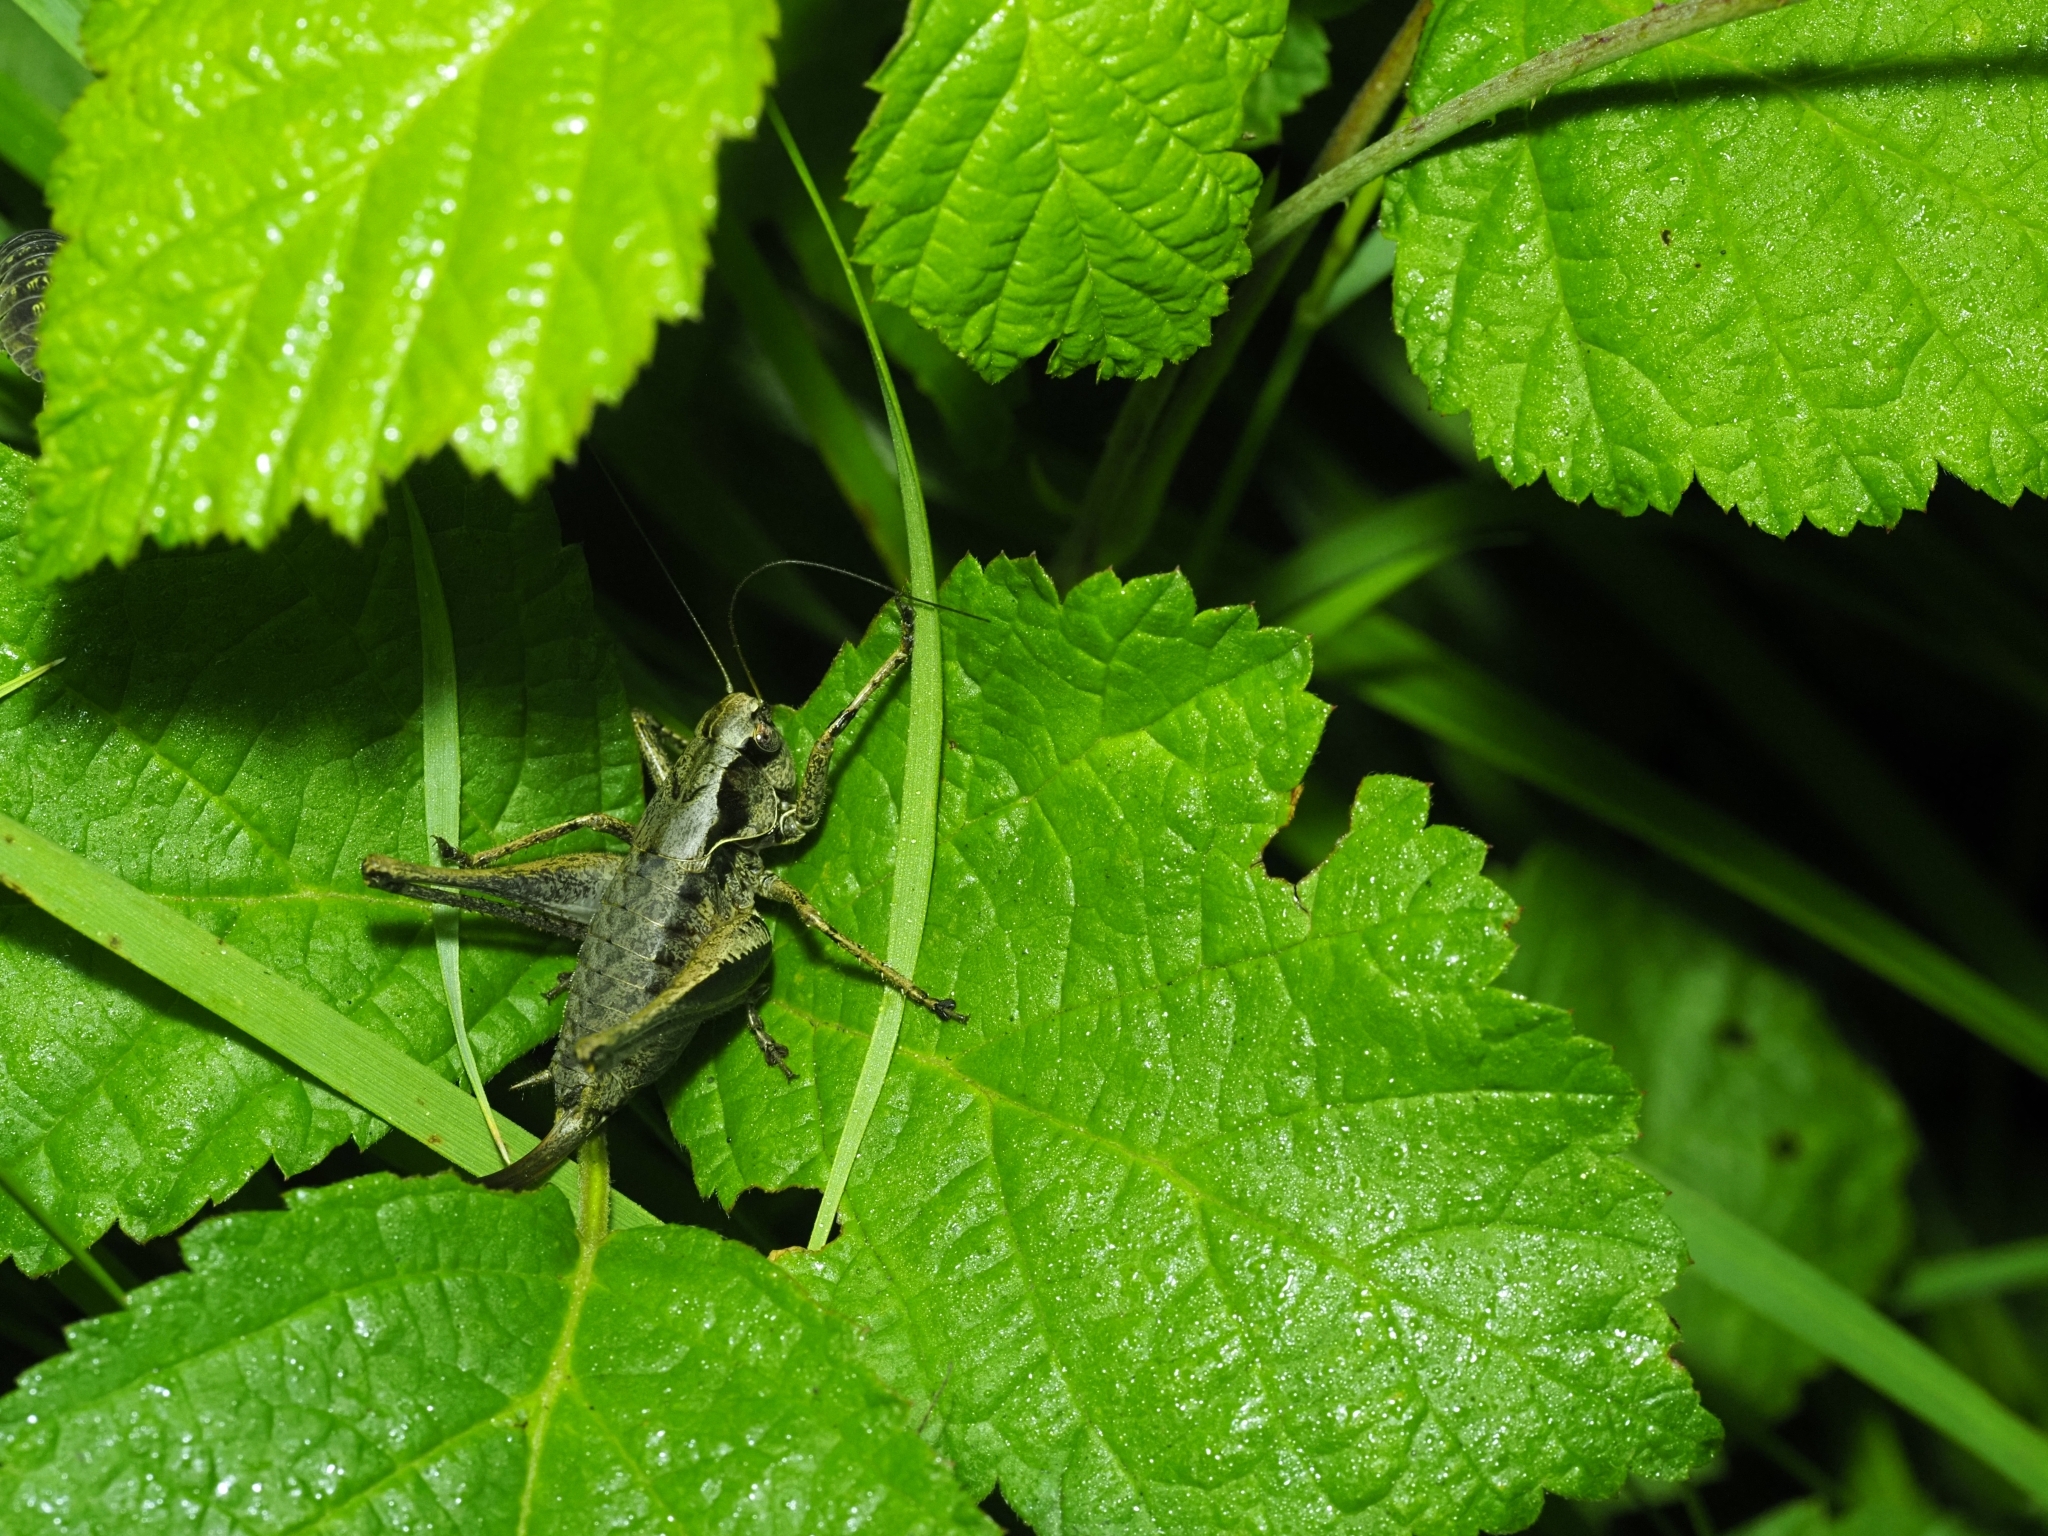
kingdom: Animalia
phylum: Arthropoda
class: Insecta
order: Orthoptera
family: Tettigoniidae
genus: Pholidoptera
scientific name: Pholidoptera griseoaptera
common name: Dark bush-cricket
